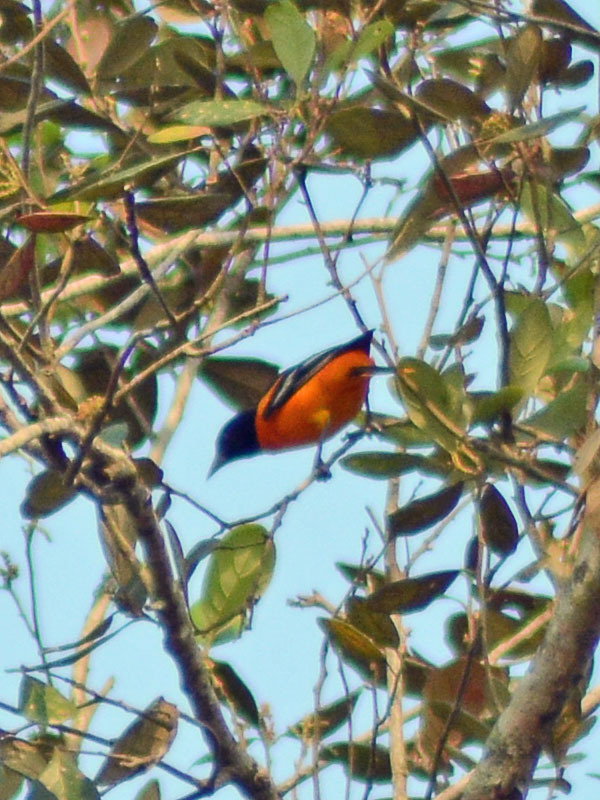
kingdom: Animalia
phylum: Chordata
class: Aves
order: Passeriformes
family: Icteridae
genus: Icterus
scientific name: Icterus galbula
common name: Baltimore oriole
